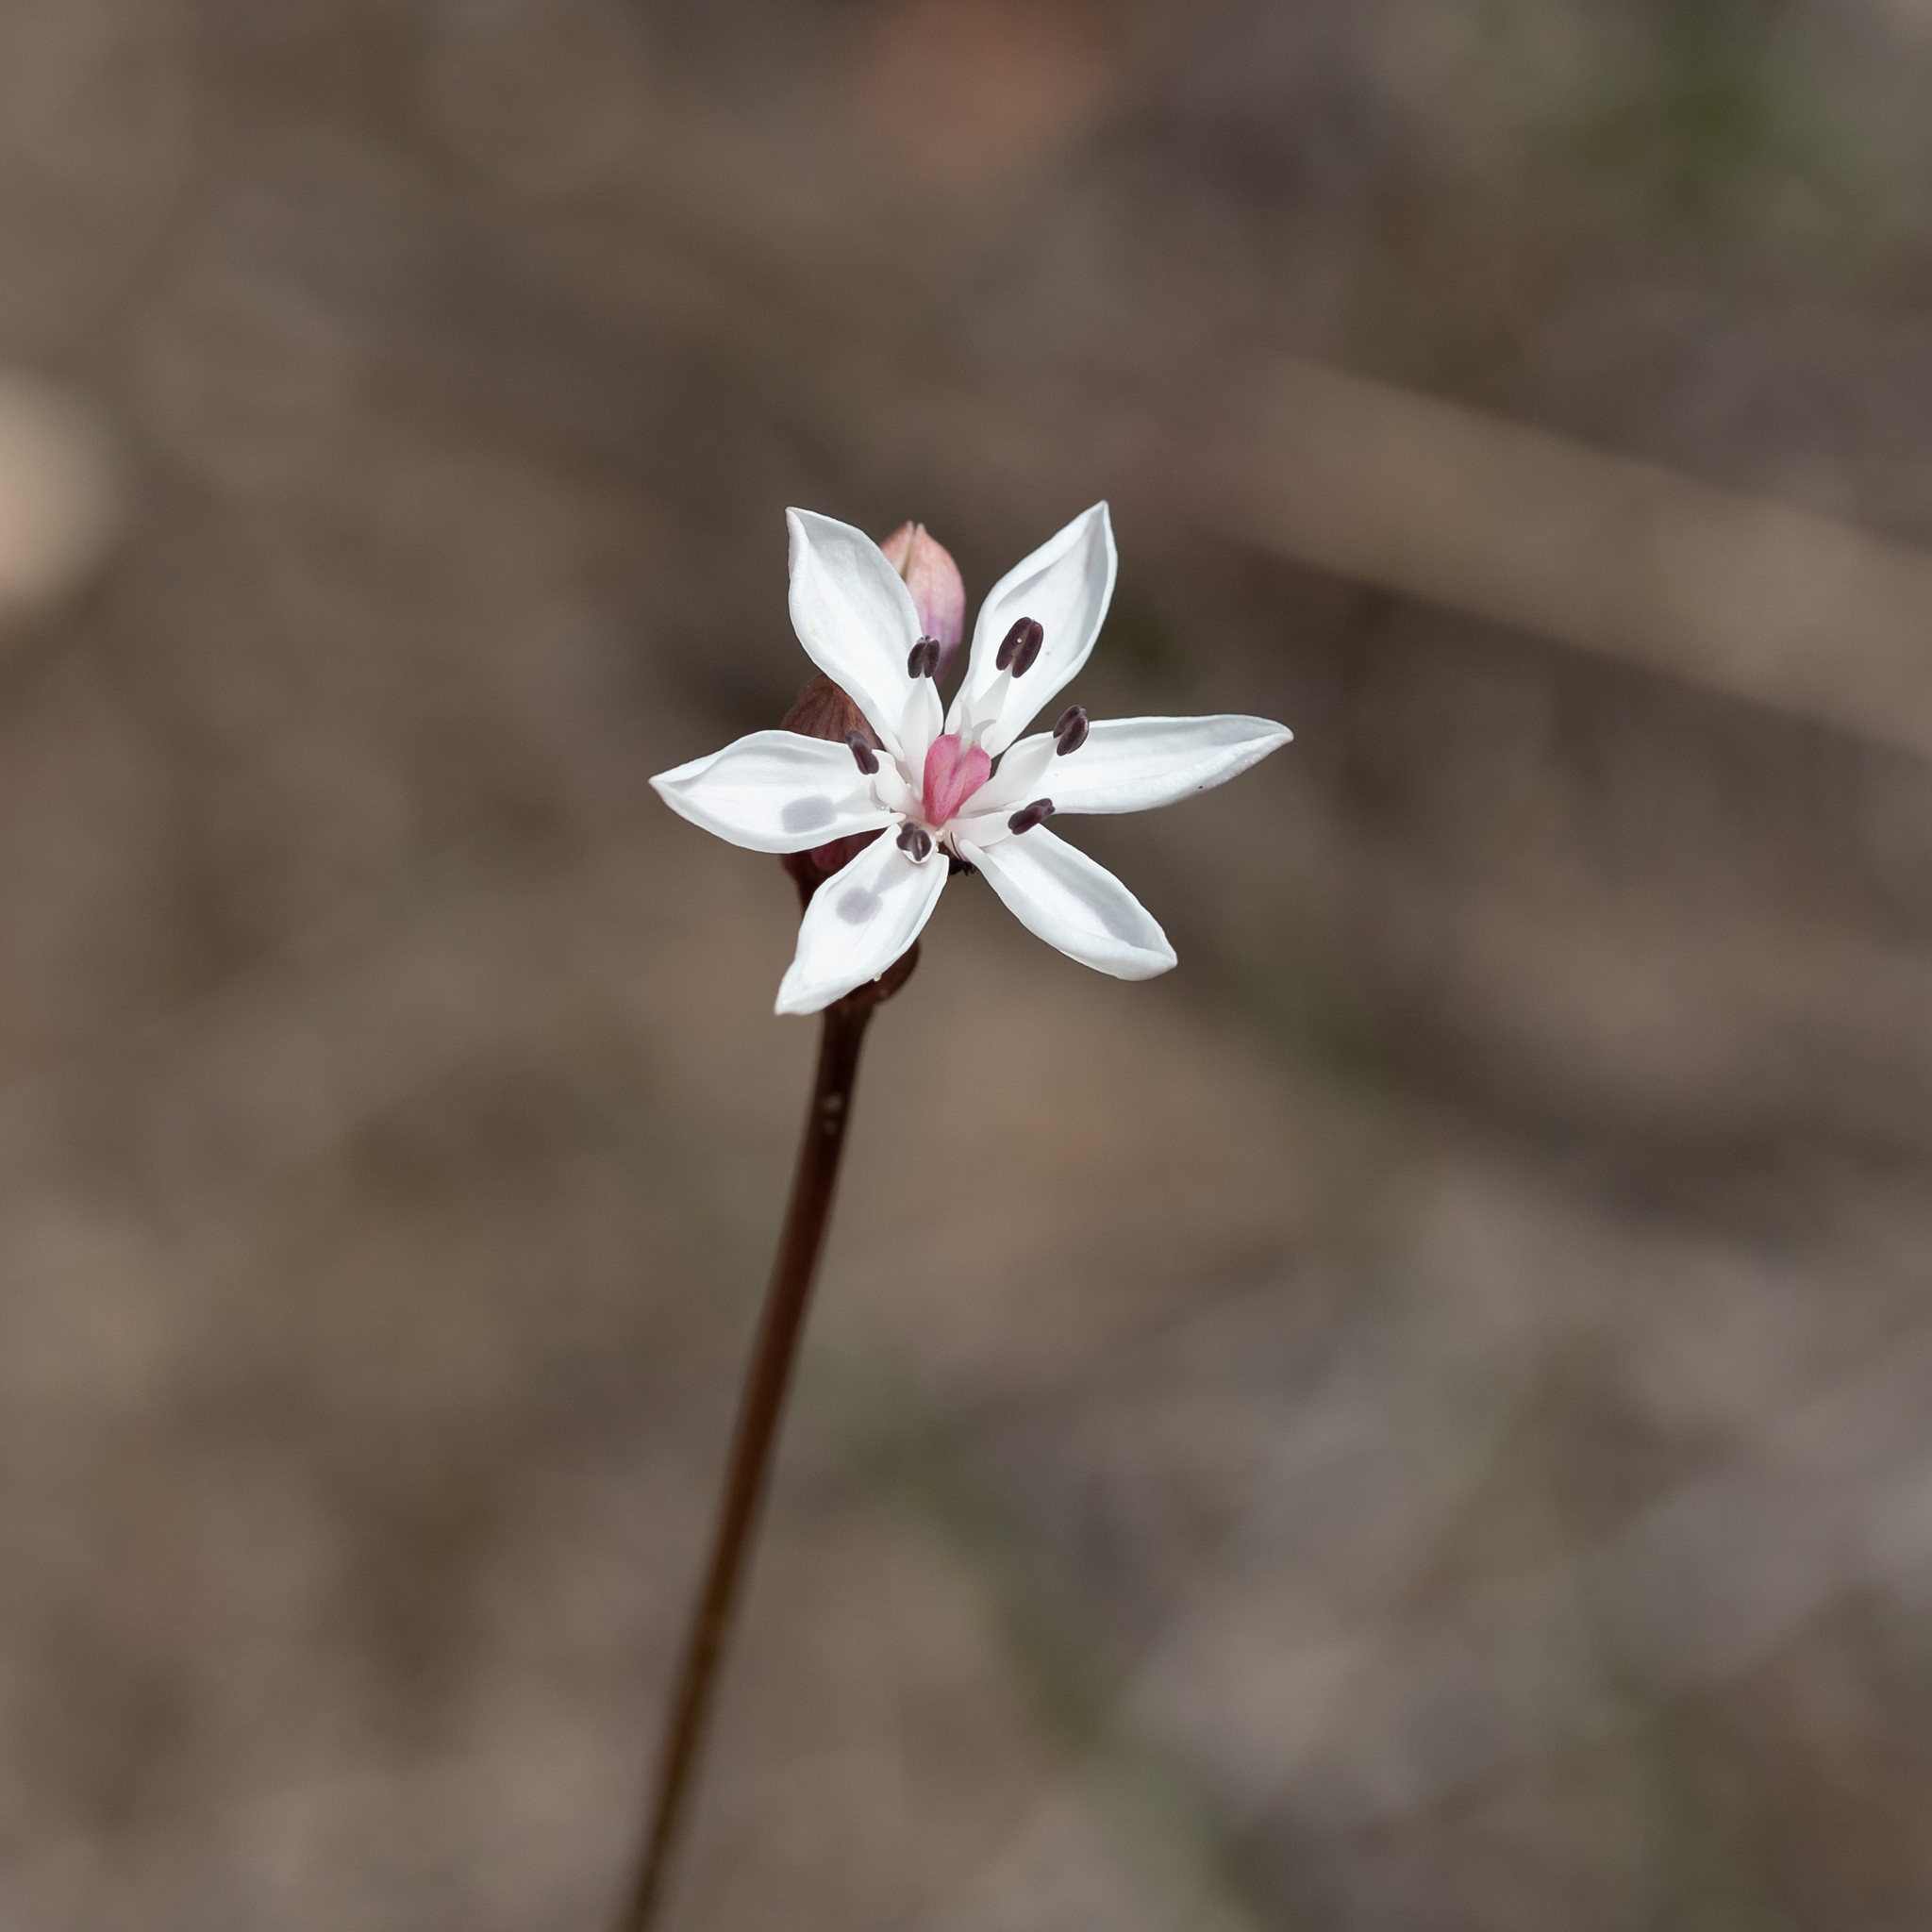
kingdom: Plantae
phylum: Tracheophyta
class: Liliopsida
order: Liliales
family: Colchicaceae
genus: Burchardia
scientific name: Burchardia umbellata
